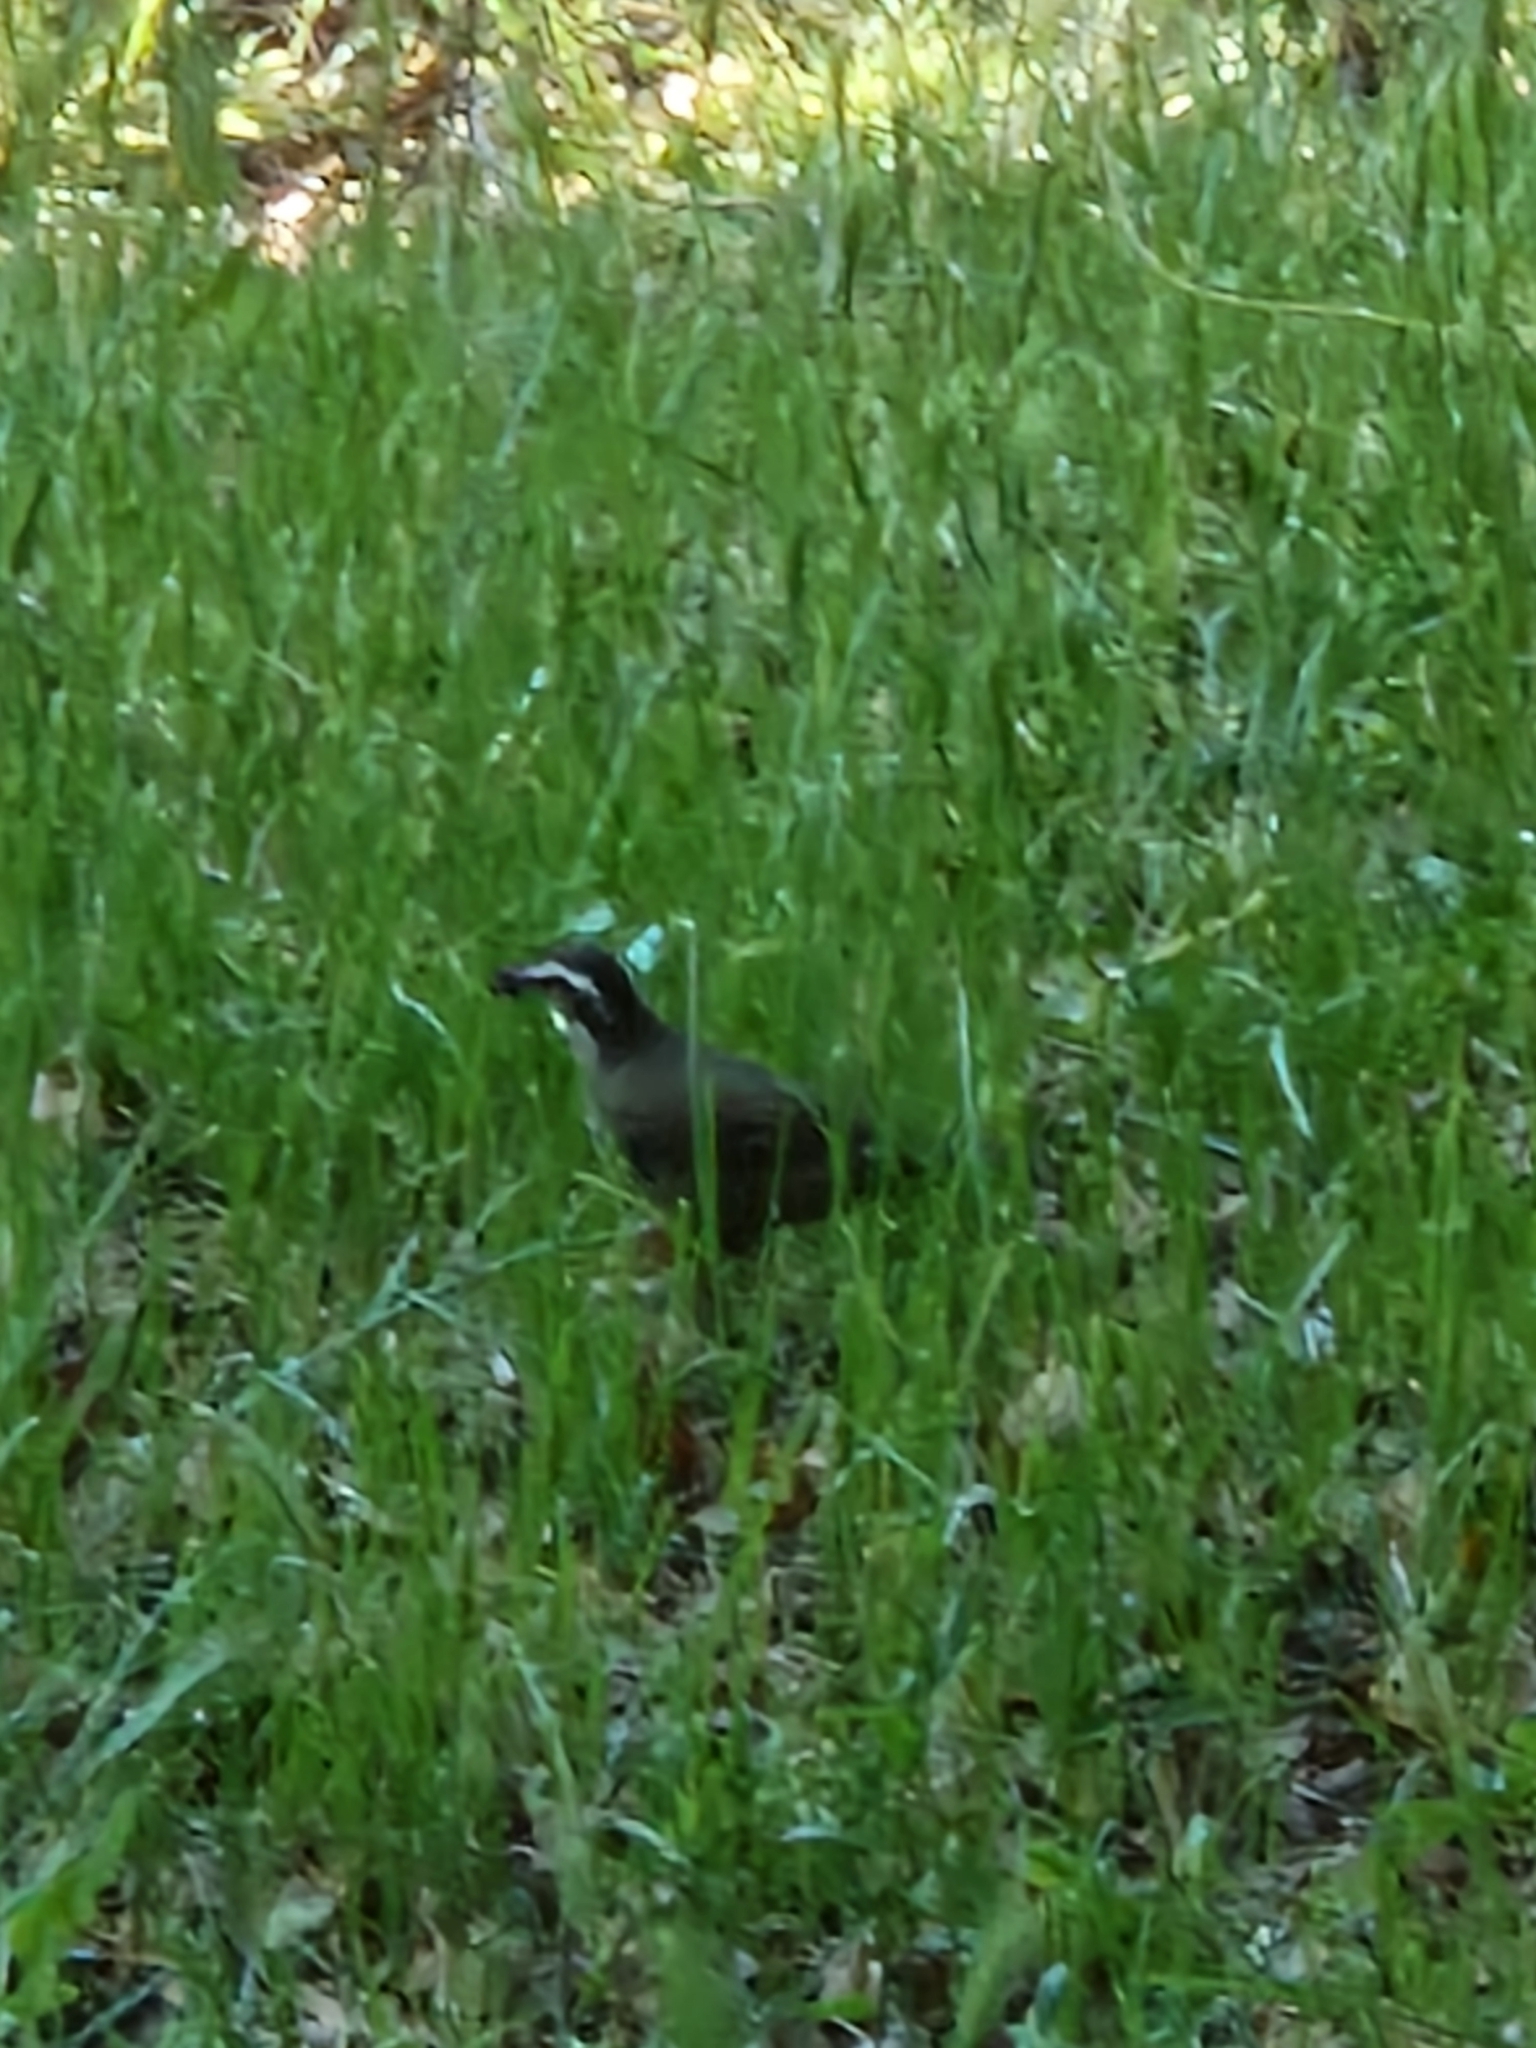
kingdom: Animalia
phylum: Chordata
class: Aves
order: Passeriformes
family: Furnariidae
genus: Cinclodes
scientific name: Cinclodes patagonicus
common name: Dark-bellied cinclodes
